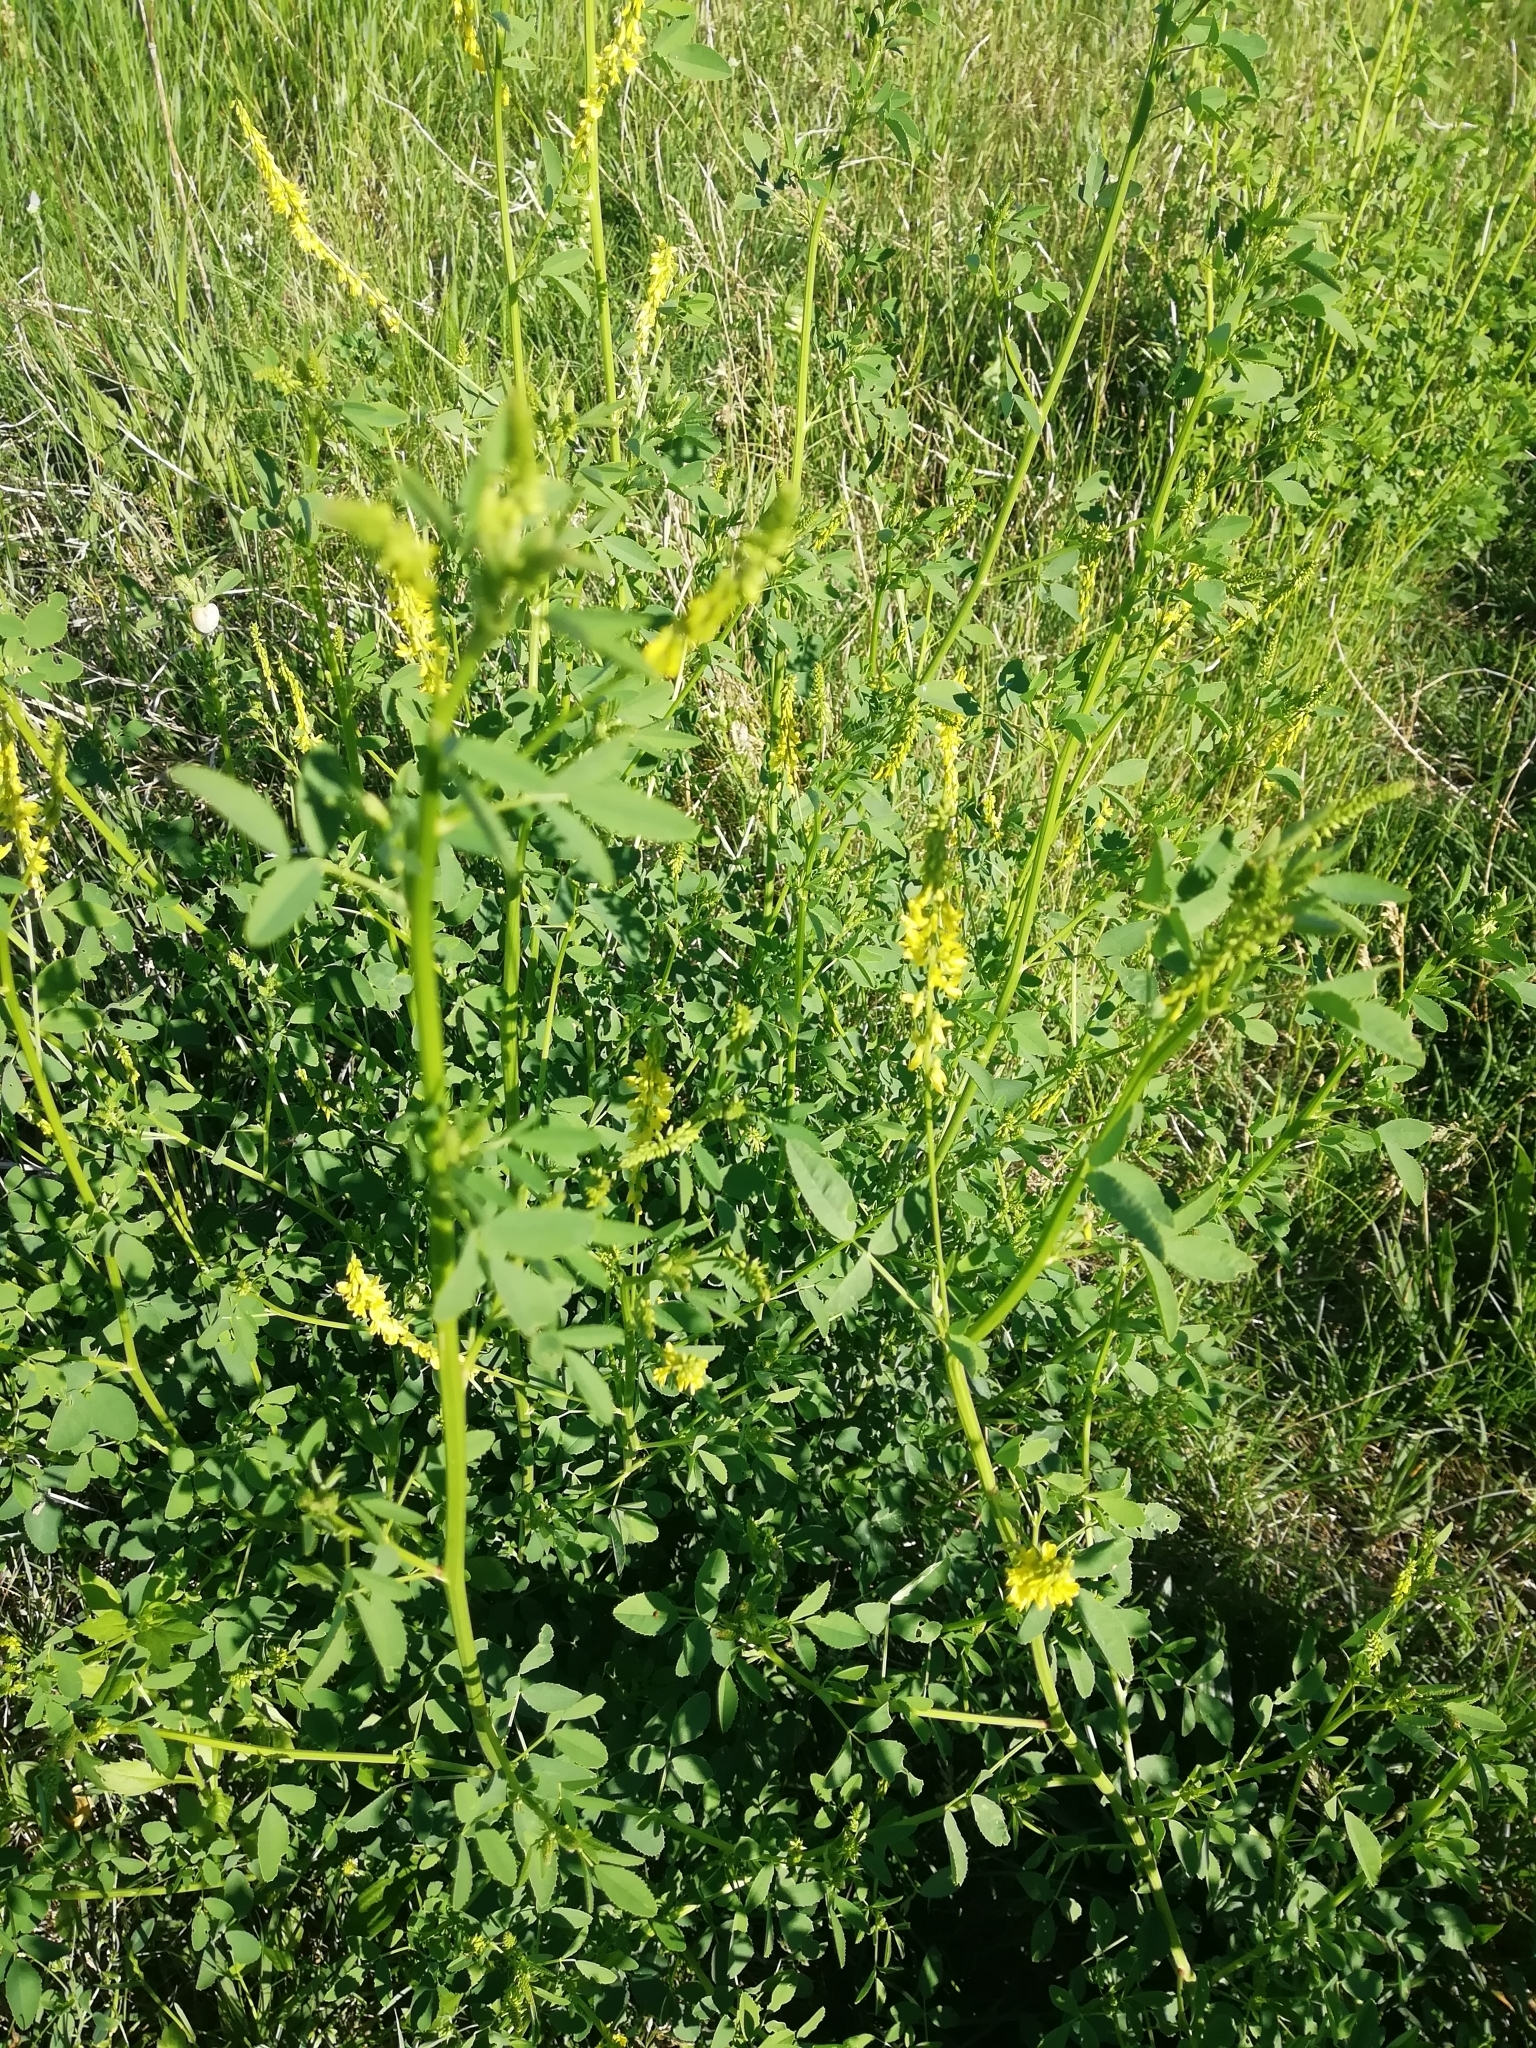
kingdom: Plantae
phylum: Tracheophyta
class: Magnoliopsida
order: Fabales
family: Fabaceae
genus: Melilotus
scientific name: Melilotus
